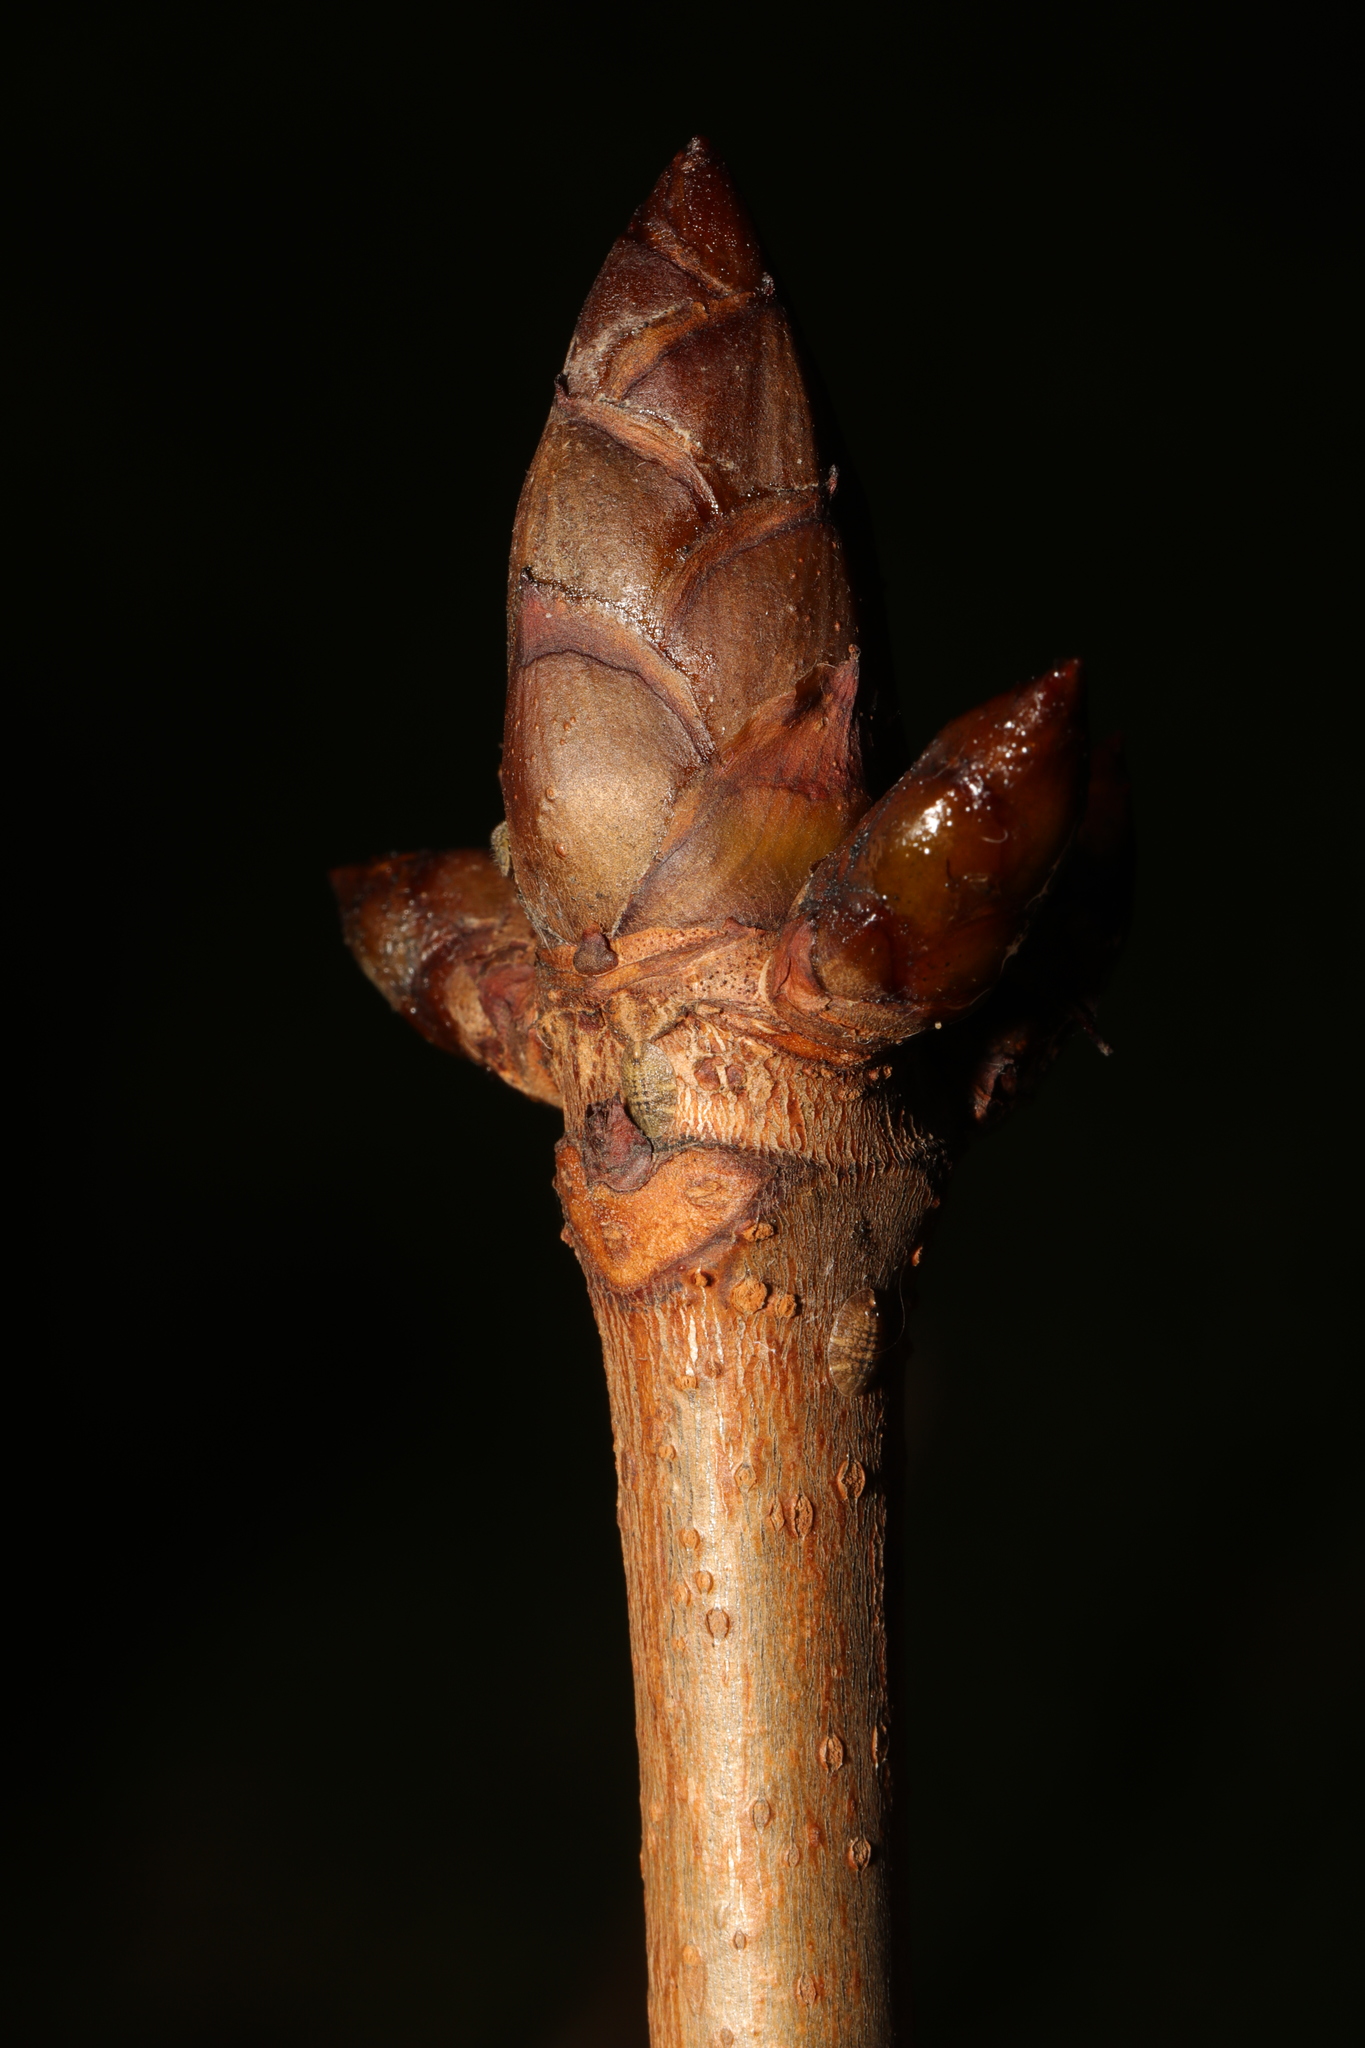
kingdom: Plantae
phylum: Tracheophyta
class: Magnoliopsida
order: Sapindales
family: Sapindaceae
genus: Aesculus
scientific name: Aesculus hippocastanum
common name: Horse-chestnut
